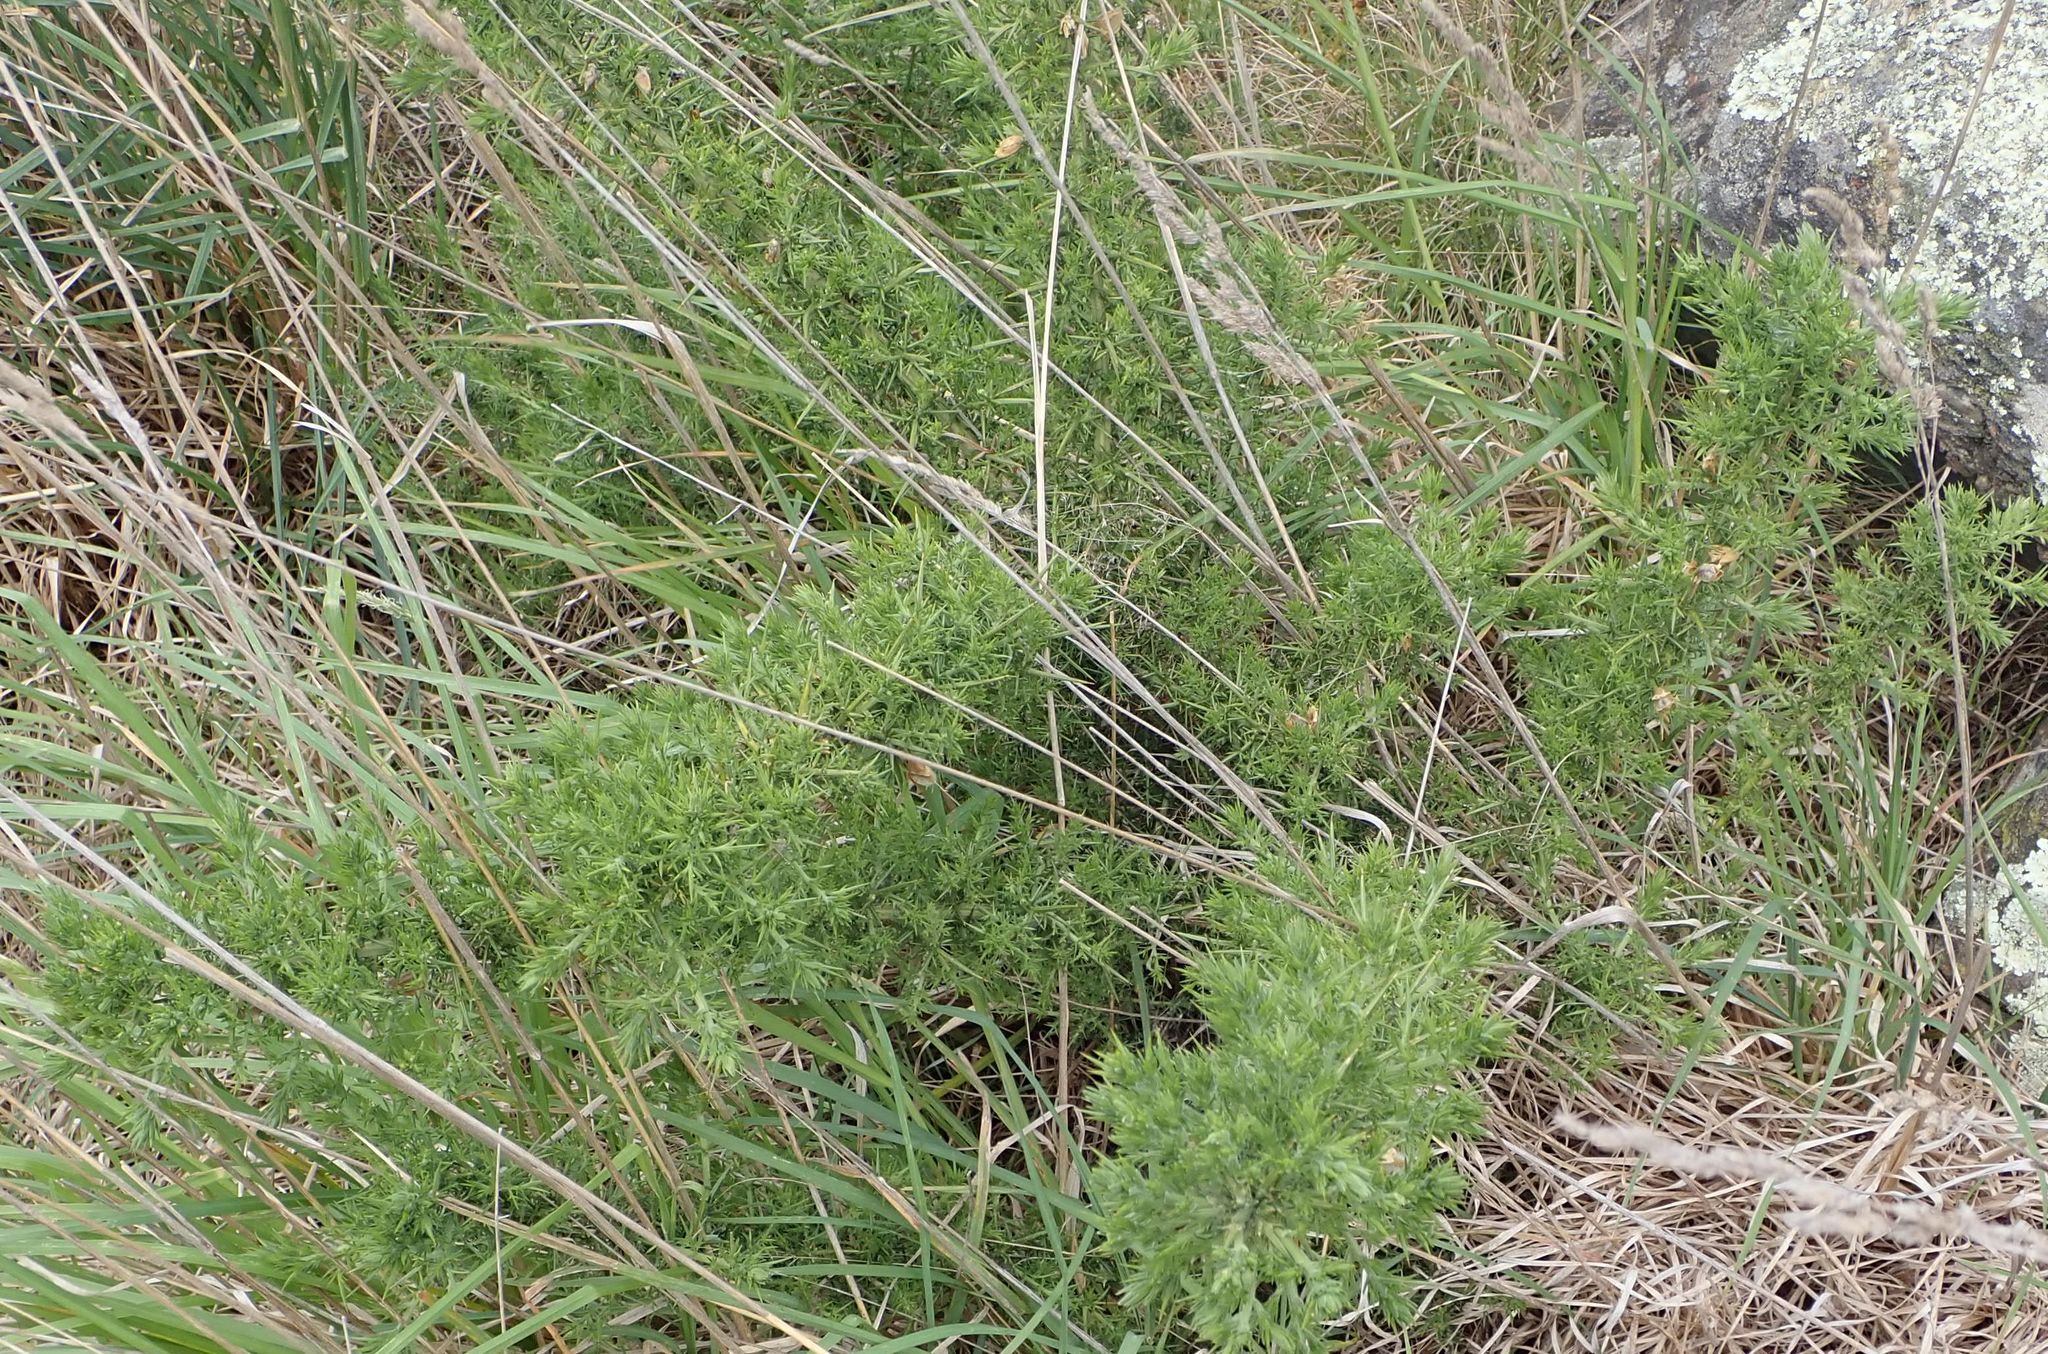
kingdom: Plantae
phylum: Tracheophyta
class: Magnoliopsida
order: Fabales
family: Fabaceae
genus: Ulex
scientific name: Ulex europaeus
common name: Common gorse
